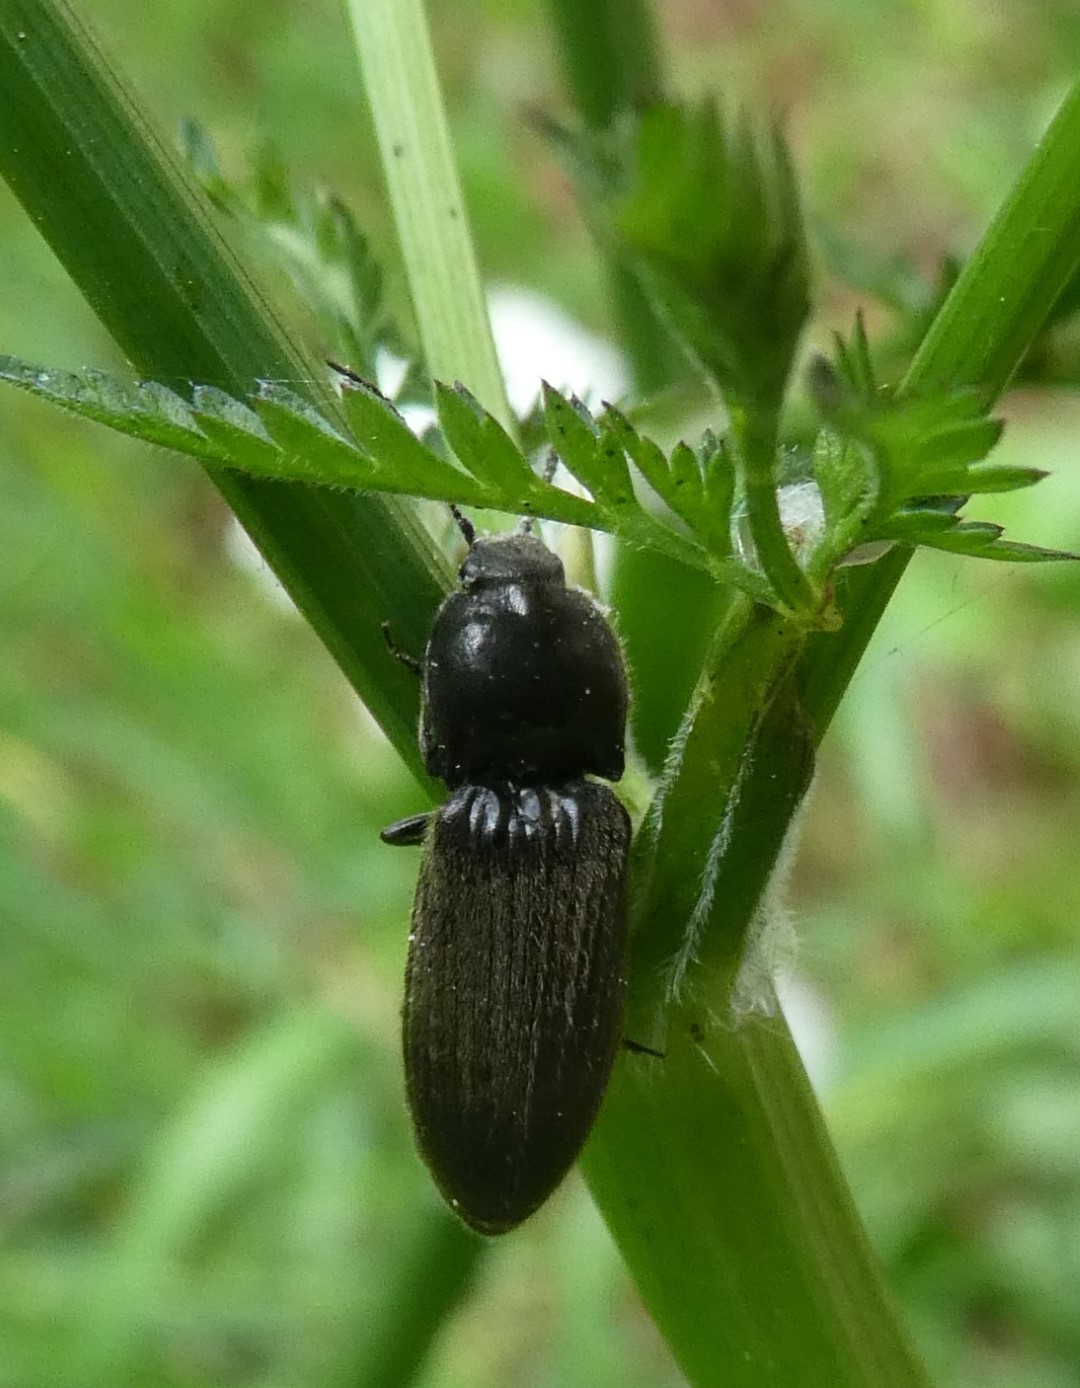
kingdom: Animalia
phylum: Arthropoda
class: Insecta
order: Coleoptera
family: Elateridae
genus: Hemicrepidius
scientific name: Hemicrepidius niger
